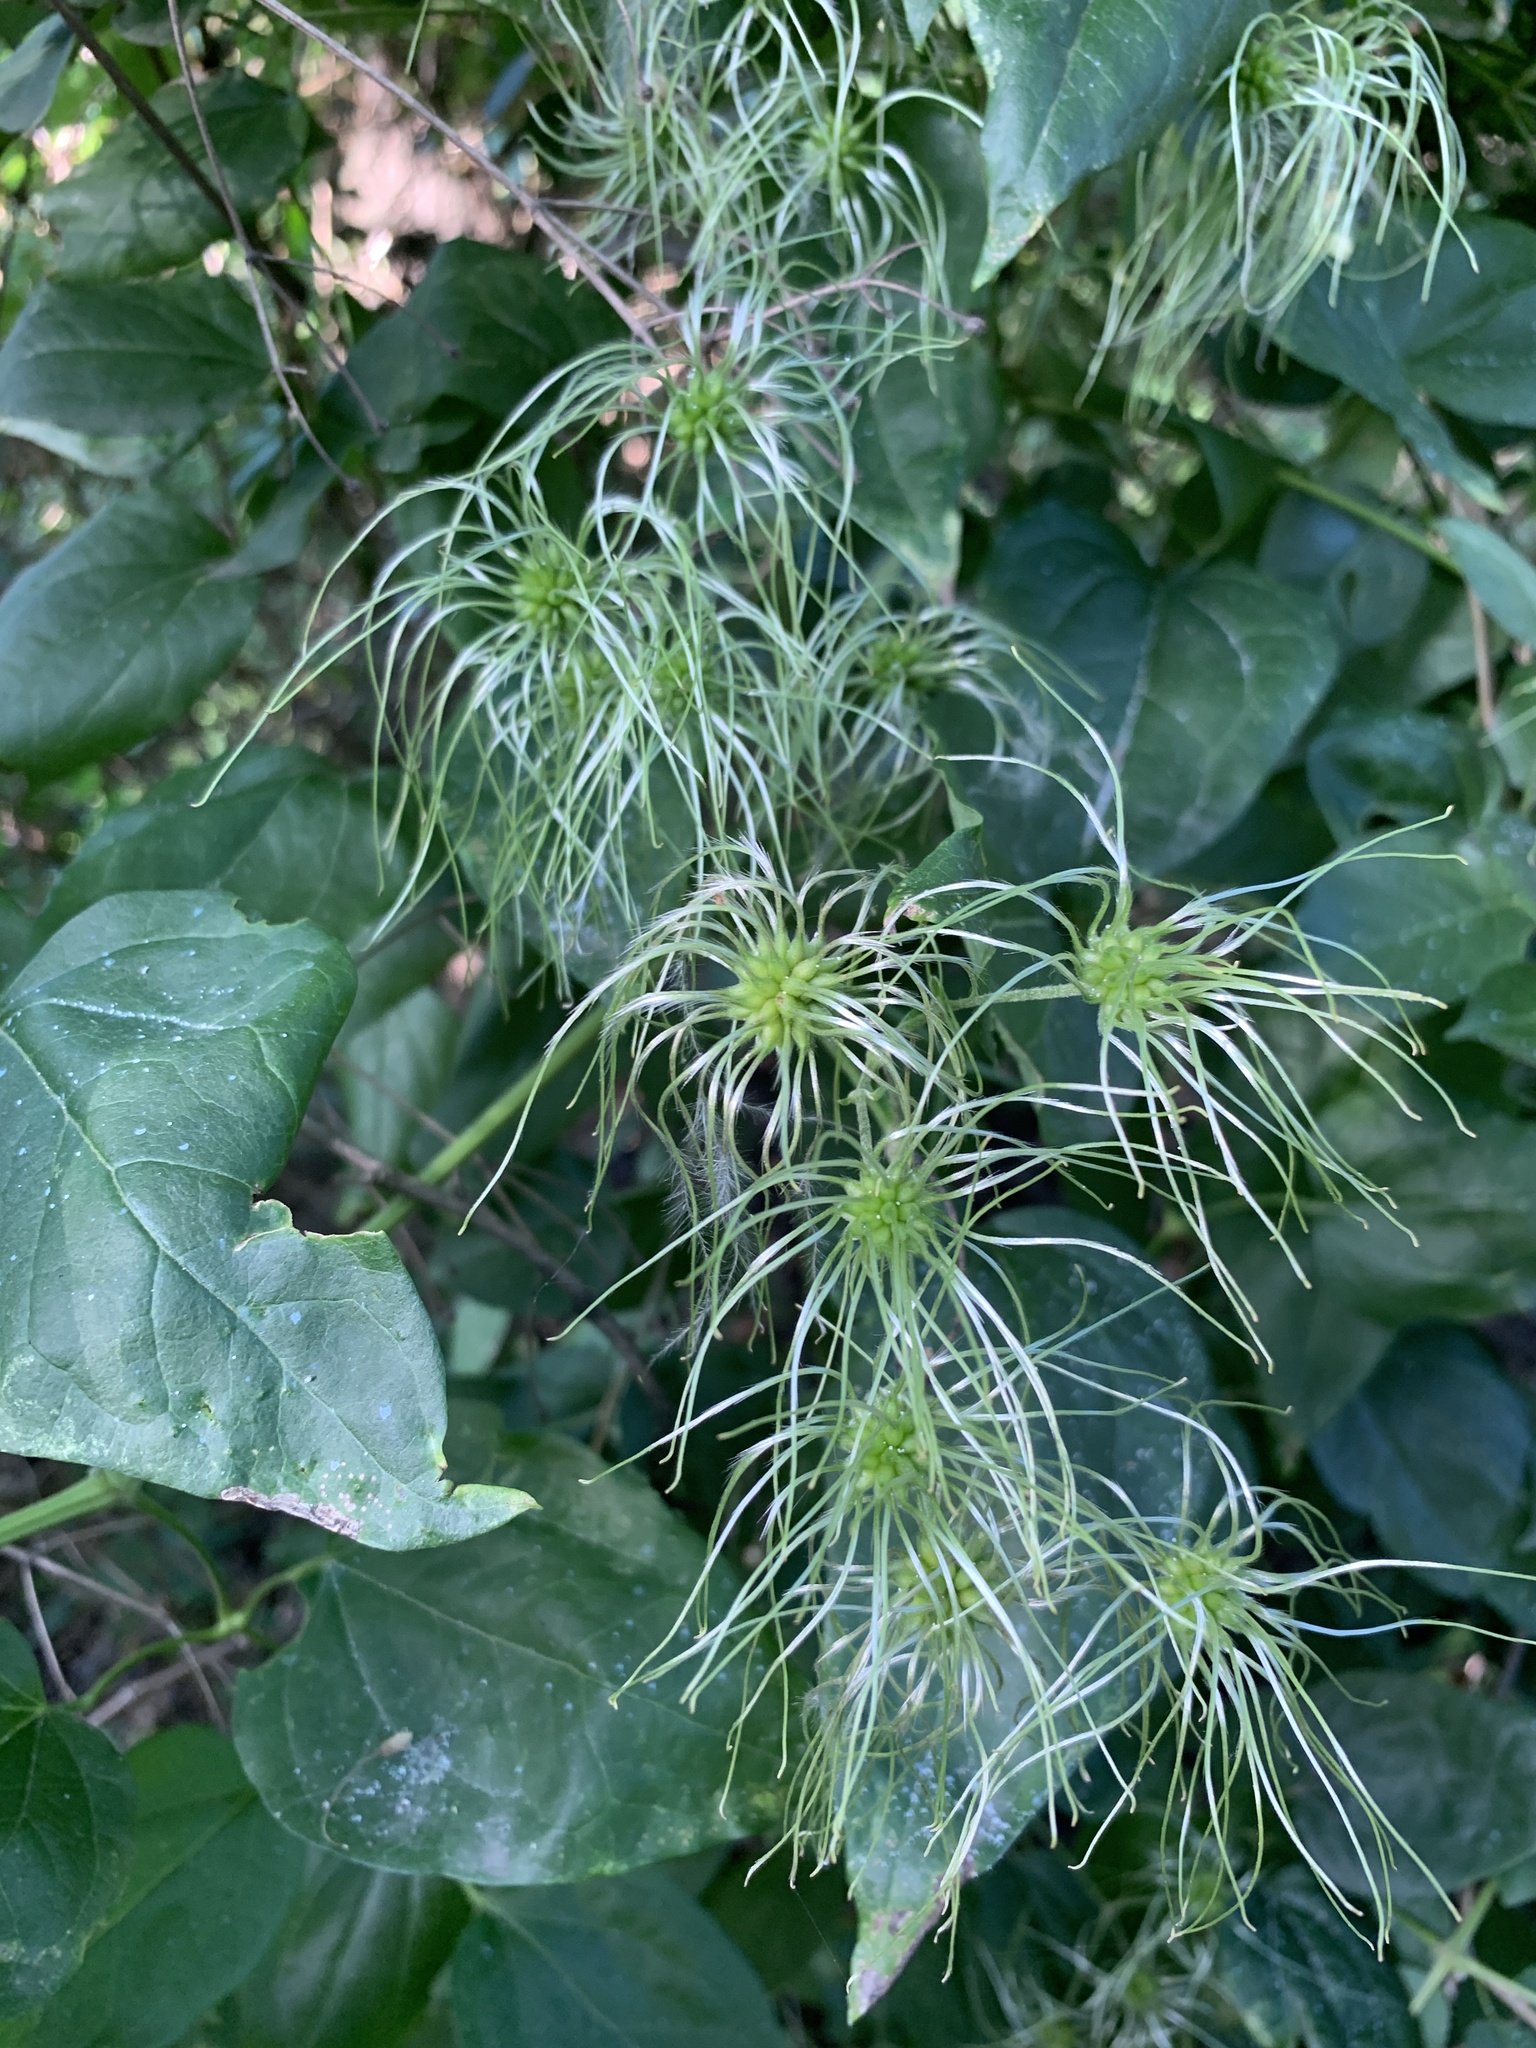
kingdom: Plantae
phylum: Tracheophyta
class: Magnoliopsida
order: Ranunculales
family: Ranunculaceae
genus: Clematis
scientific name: Clematis vitalba
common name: Evergreen clematis
